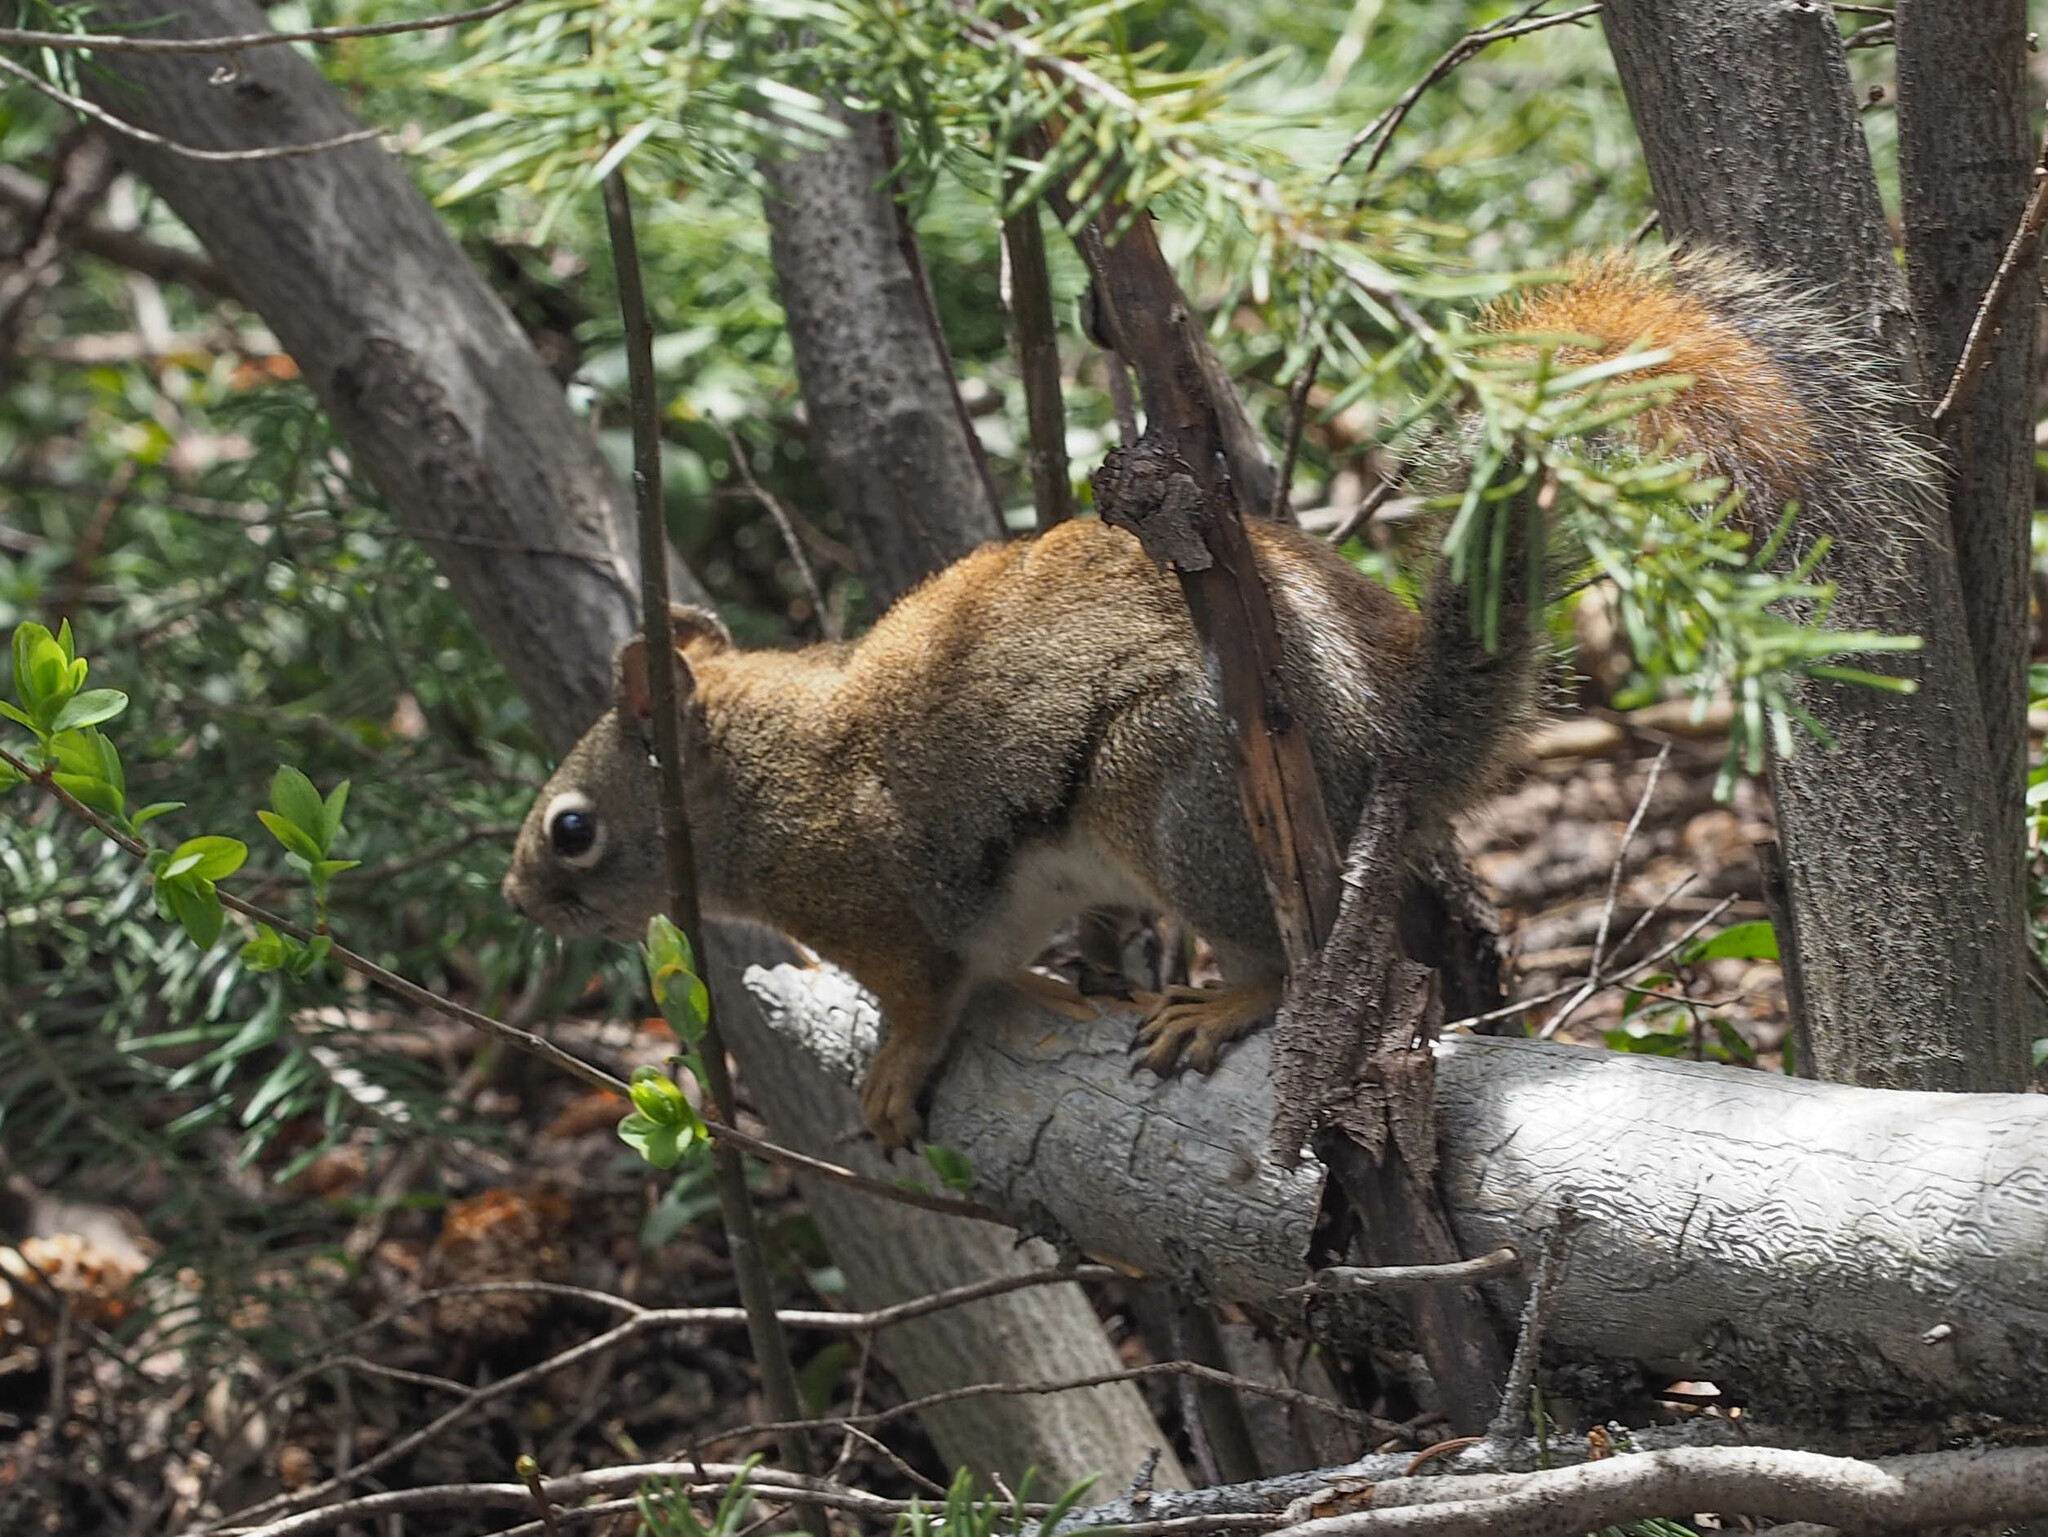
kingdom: Animalia
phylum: Chordata
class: Mammalia
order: Rodentia
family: Sciuridae
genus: Tamiasciurus
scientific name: Tamiasciurus hudsonicus
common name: Red squirrel
